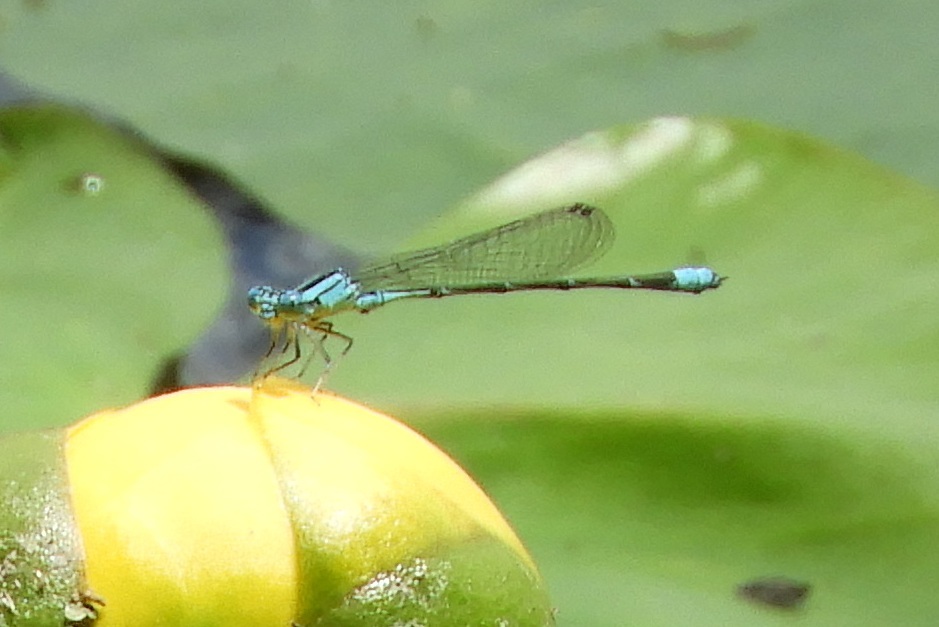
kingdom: Animalia
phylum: Arthropoda
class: Insecta
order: Odonata
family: Coenagrionidae
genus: Enallagma
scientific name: Enallagma traviatum
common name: Slender bluet
